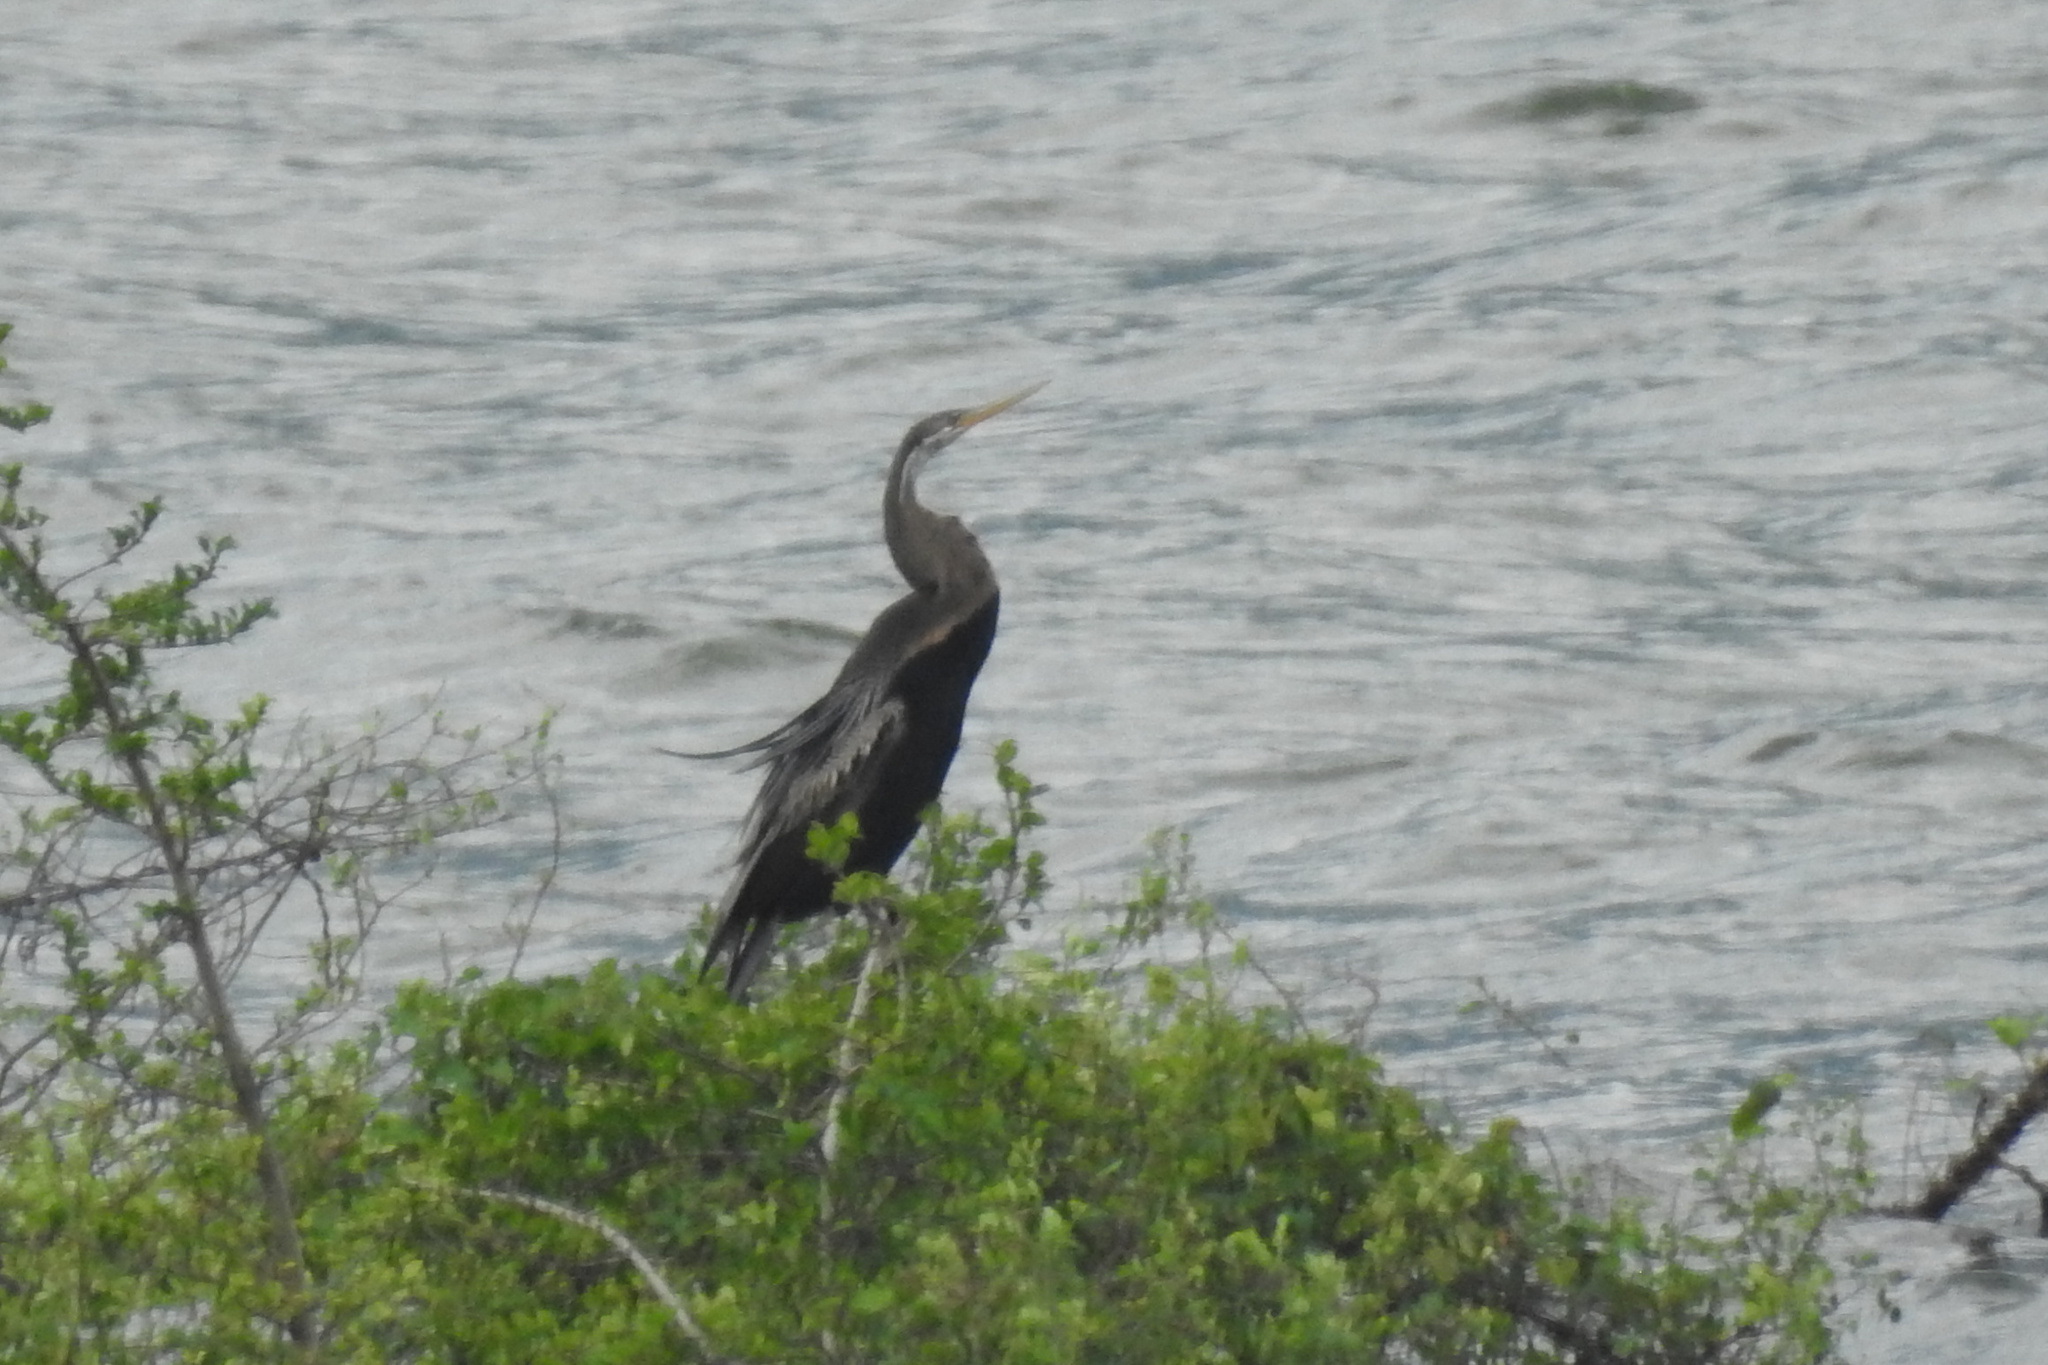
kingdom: Animalia
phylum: Chordata
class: Aves
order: Suliformes
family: Anhingidae
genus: Anhinga
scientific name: Anhinga melanogaster
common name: Oriental darter
